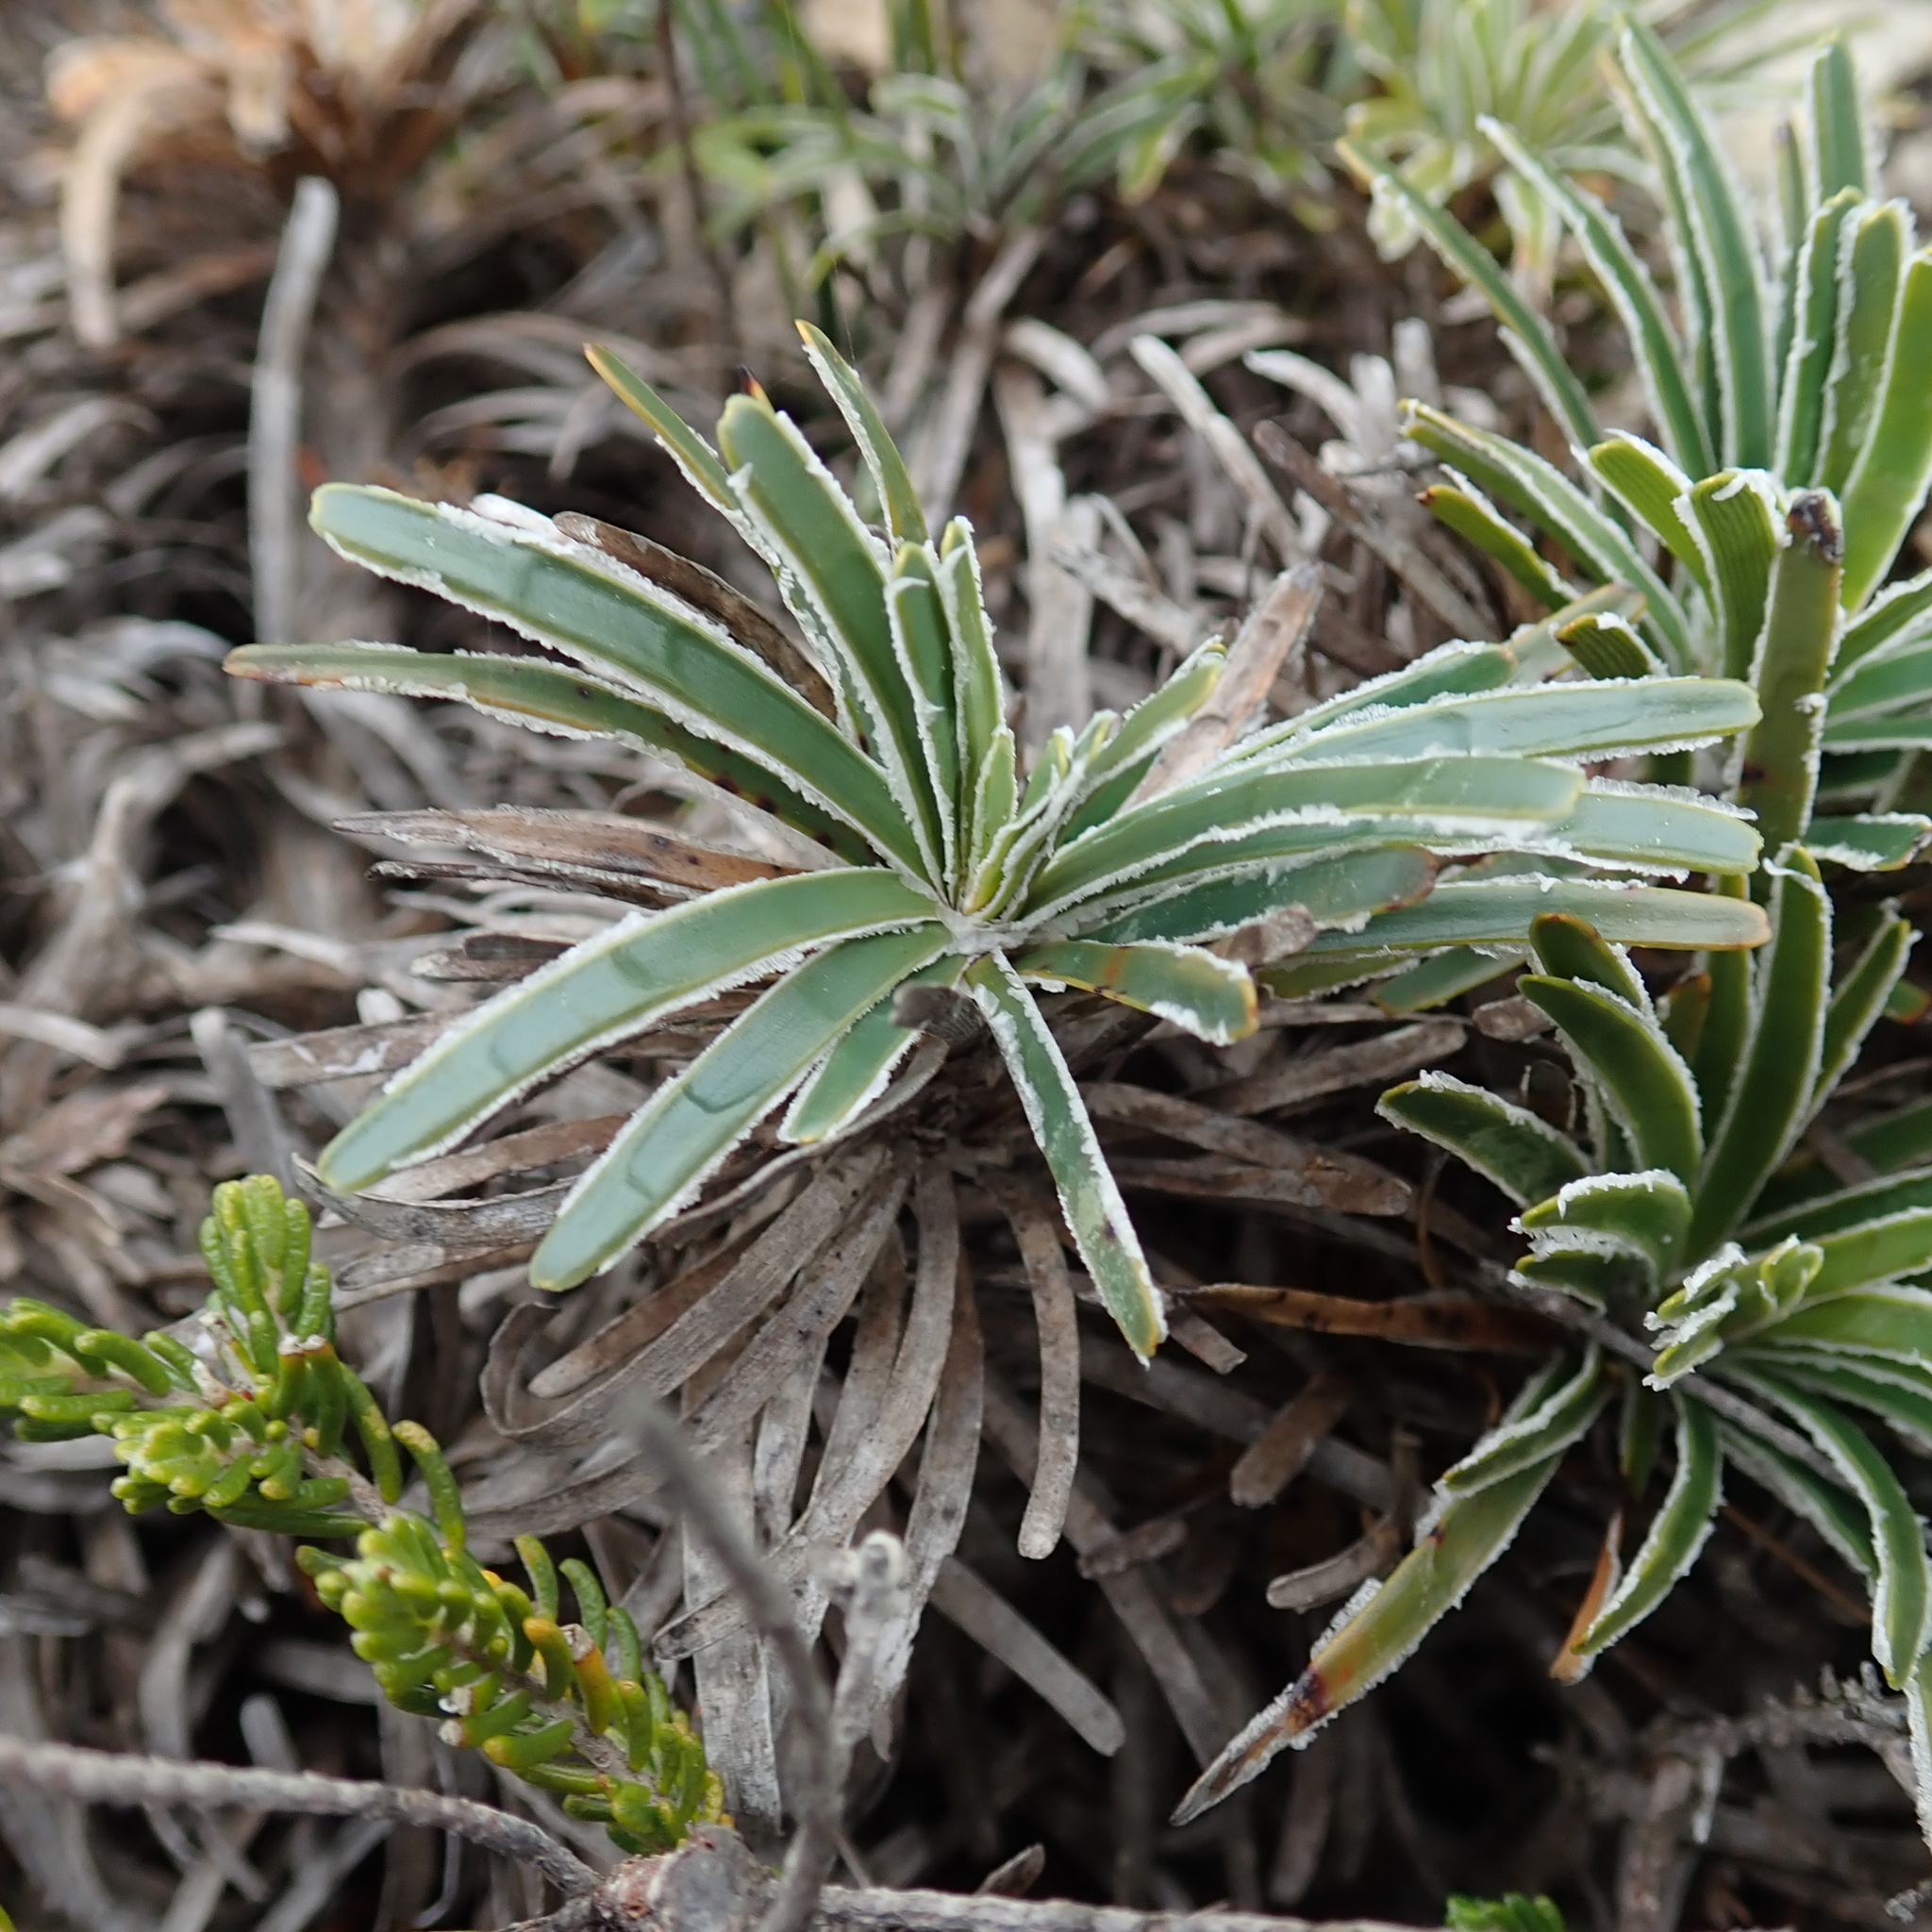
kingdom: Plantae
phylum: Tracheophyta
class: Liliopsida
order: Poales
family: Cyperaceae
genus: Ficinia
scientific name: Ficinia truncata
